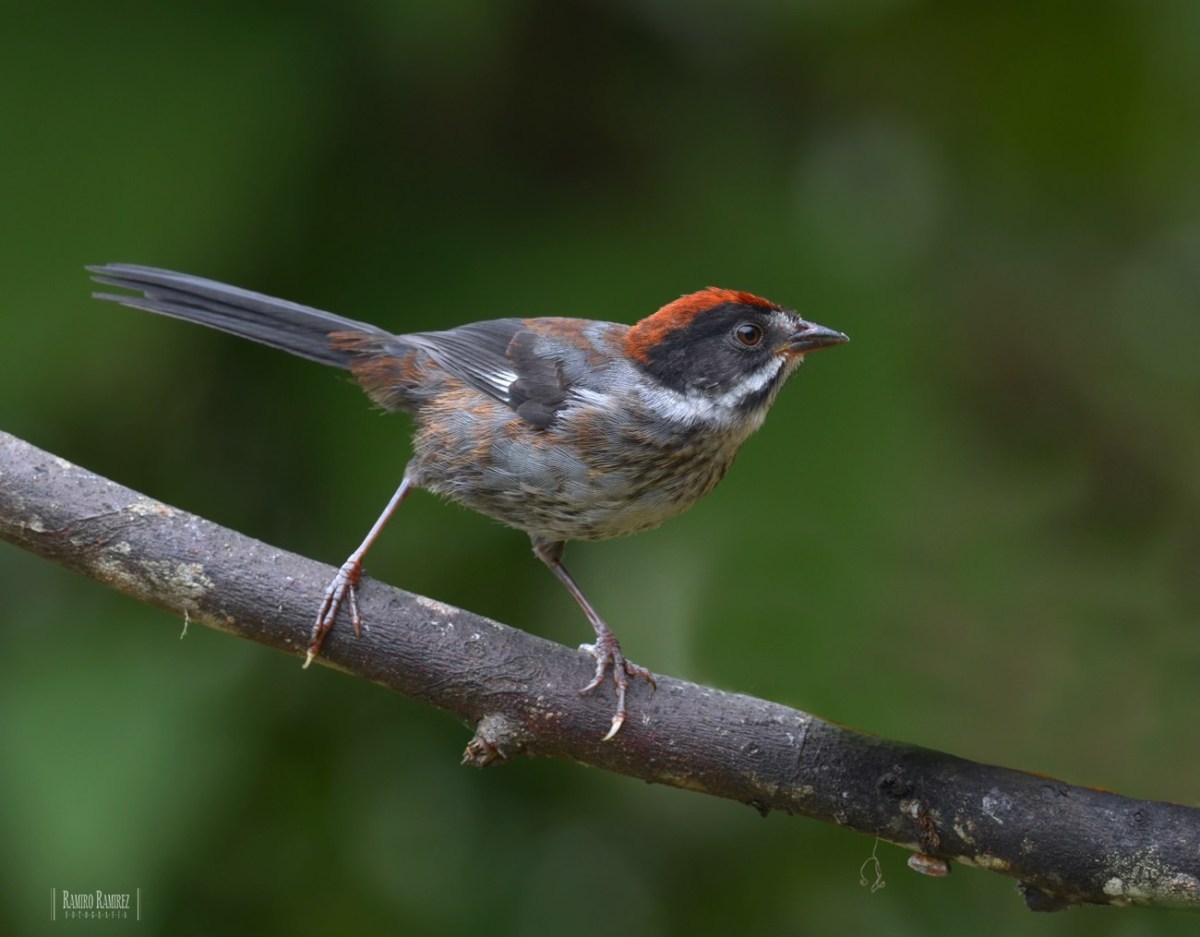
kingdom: Animalia
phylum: Chordata
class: Aves
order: Passeriformes
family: Passerellidae
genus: Atlapetes
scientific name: Atlapetes schistaceus
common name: Slaty brushfinch
